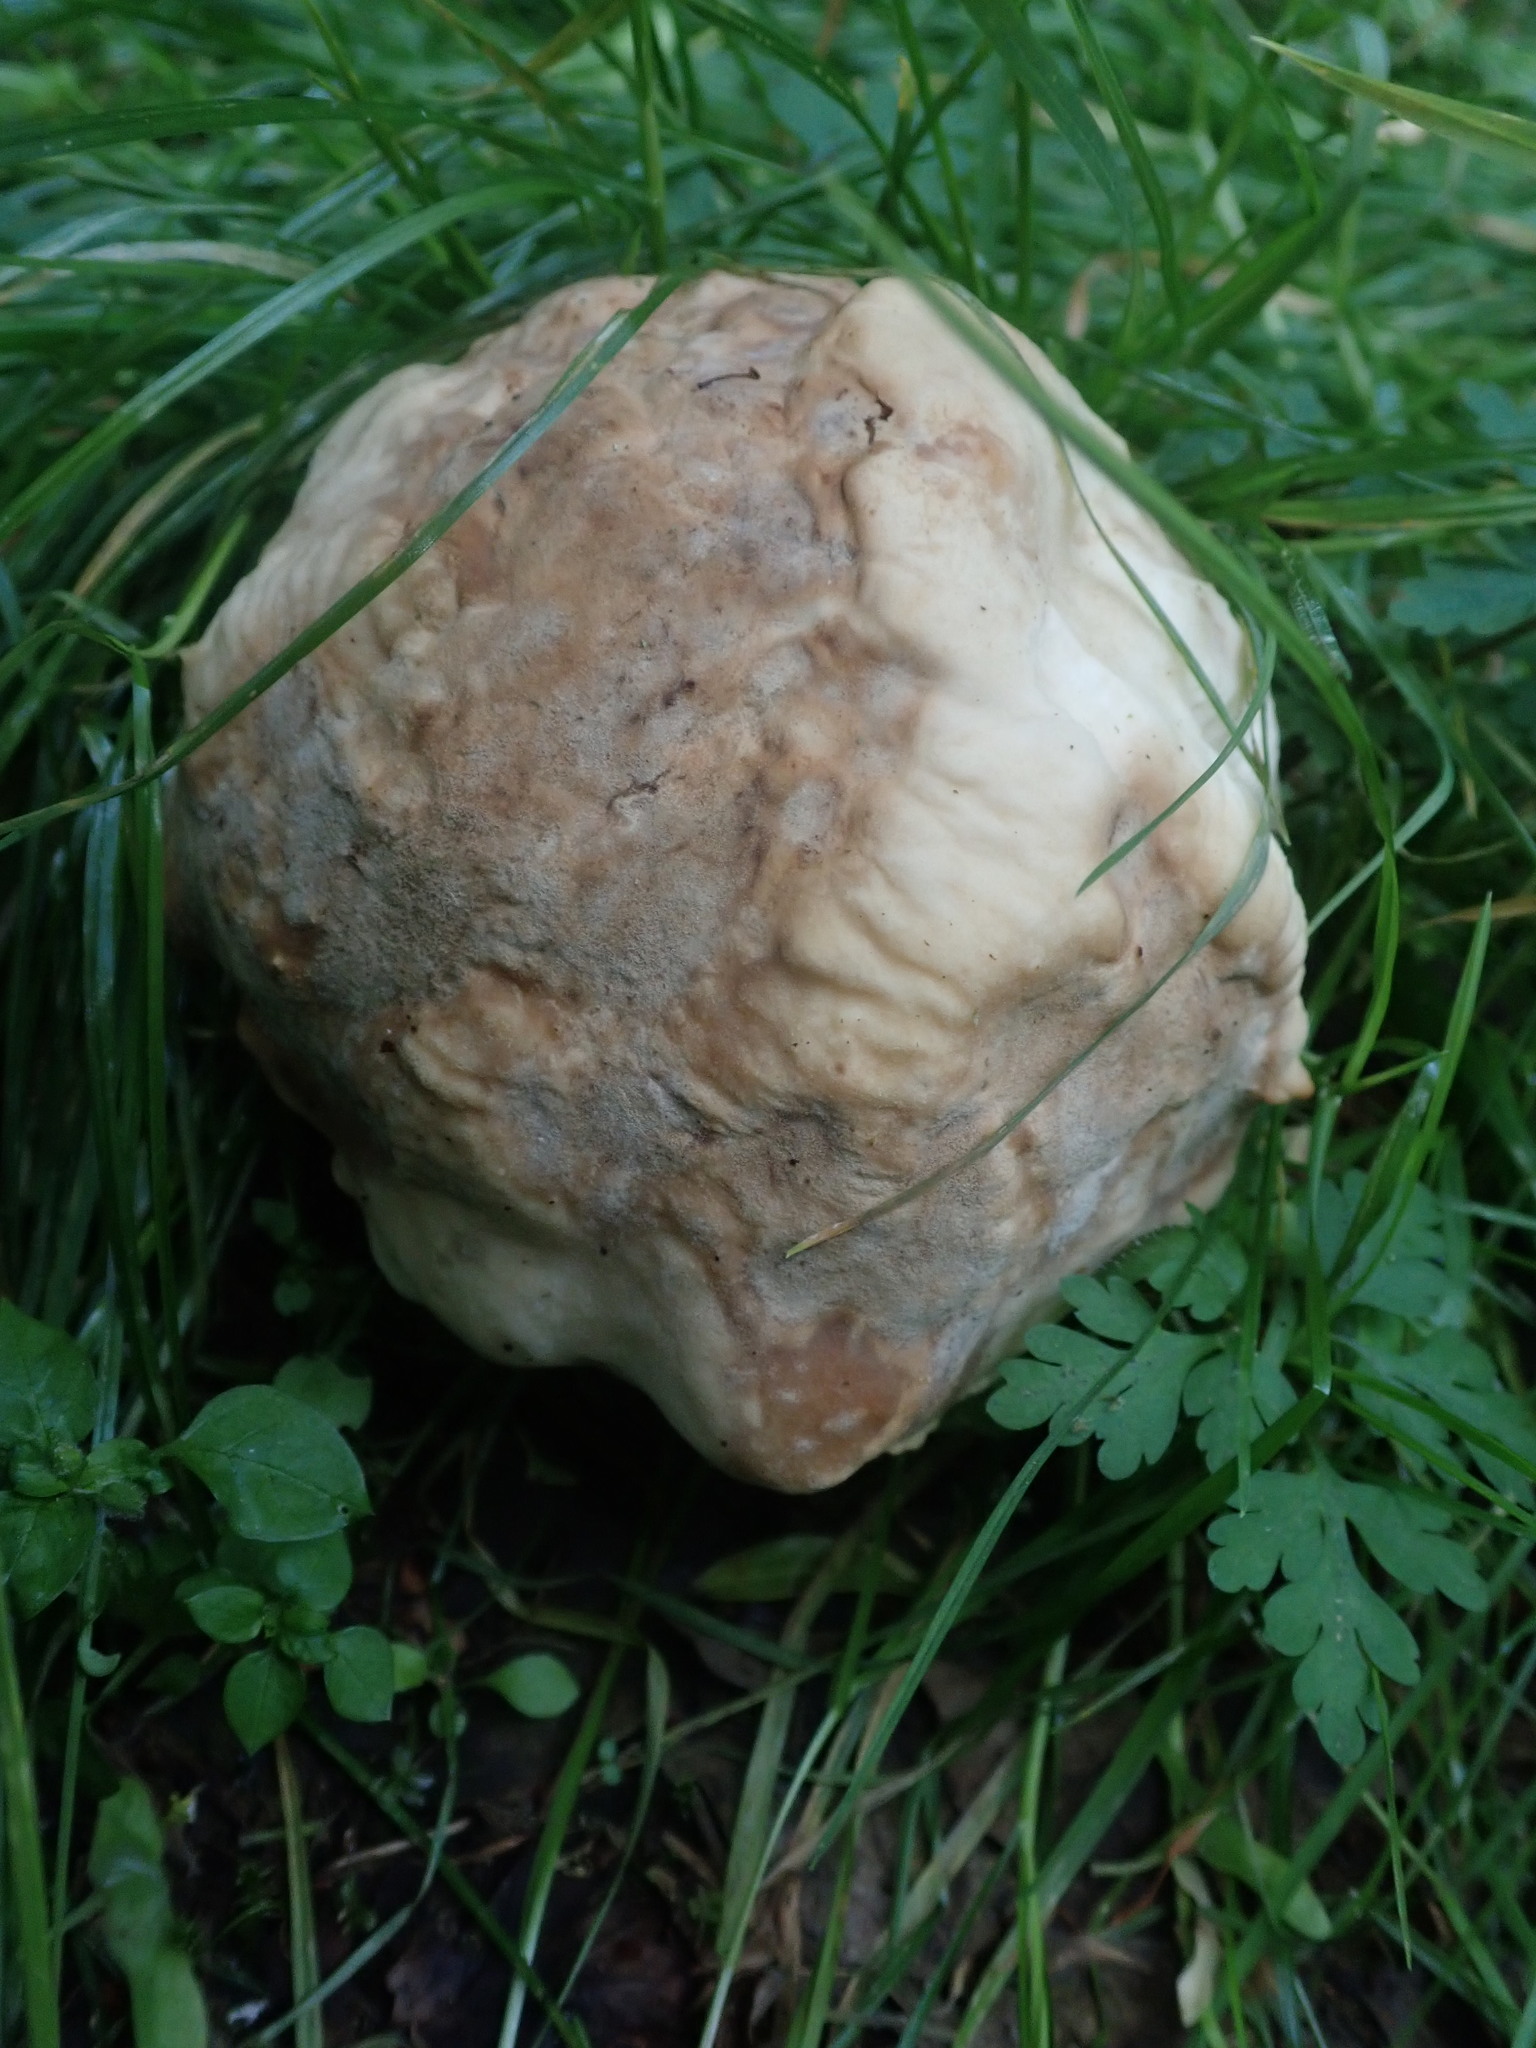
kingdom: Fungi
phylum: Basidiomycota
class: Agaricomycetes
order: Agaricales
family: Lyophyllaceae
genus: Calocybe
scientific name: Calocybe gambosa
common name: St. george's mushroom
